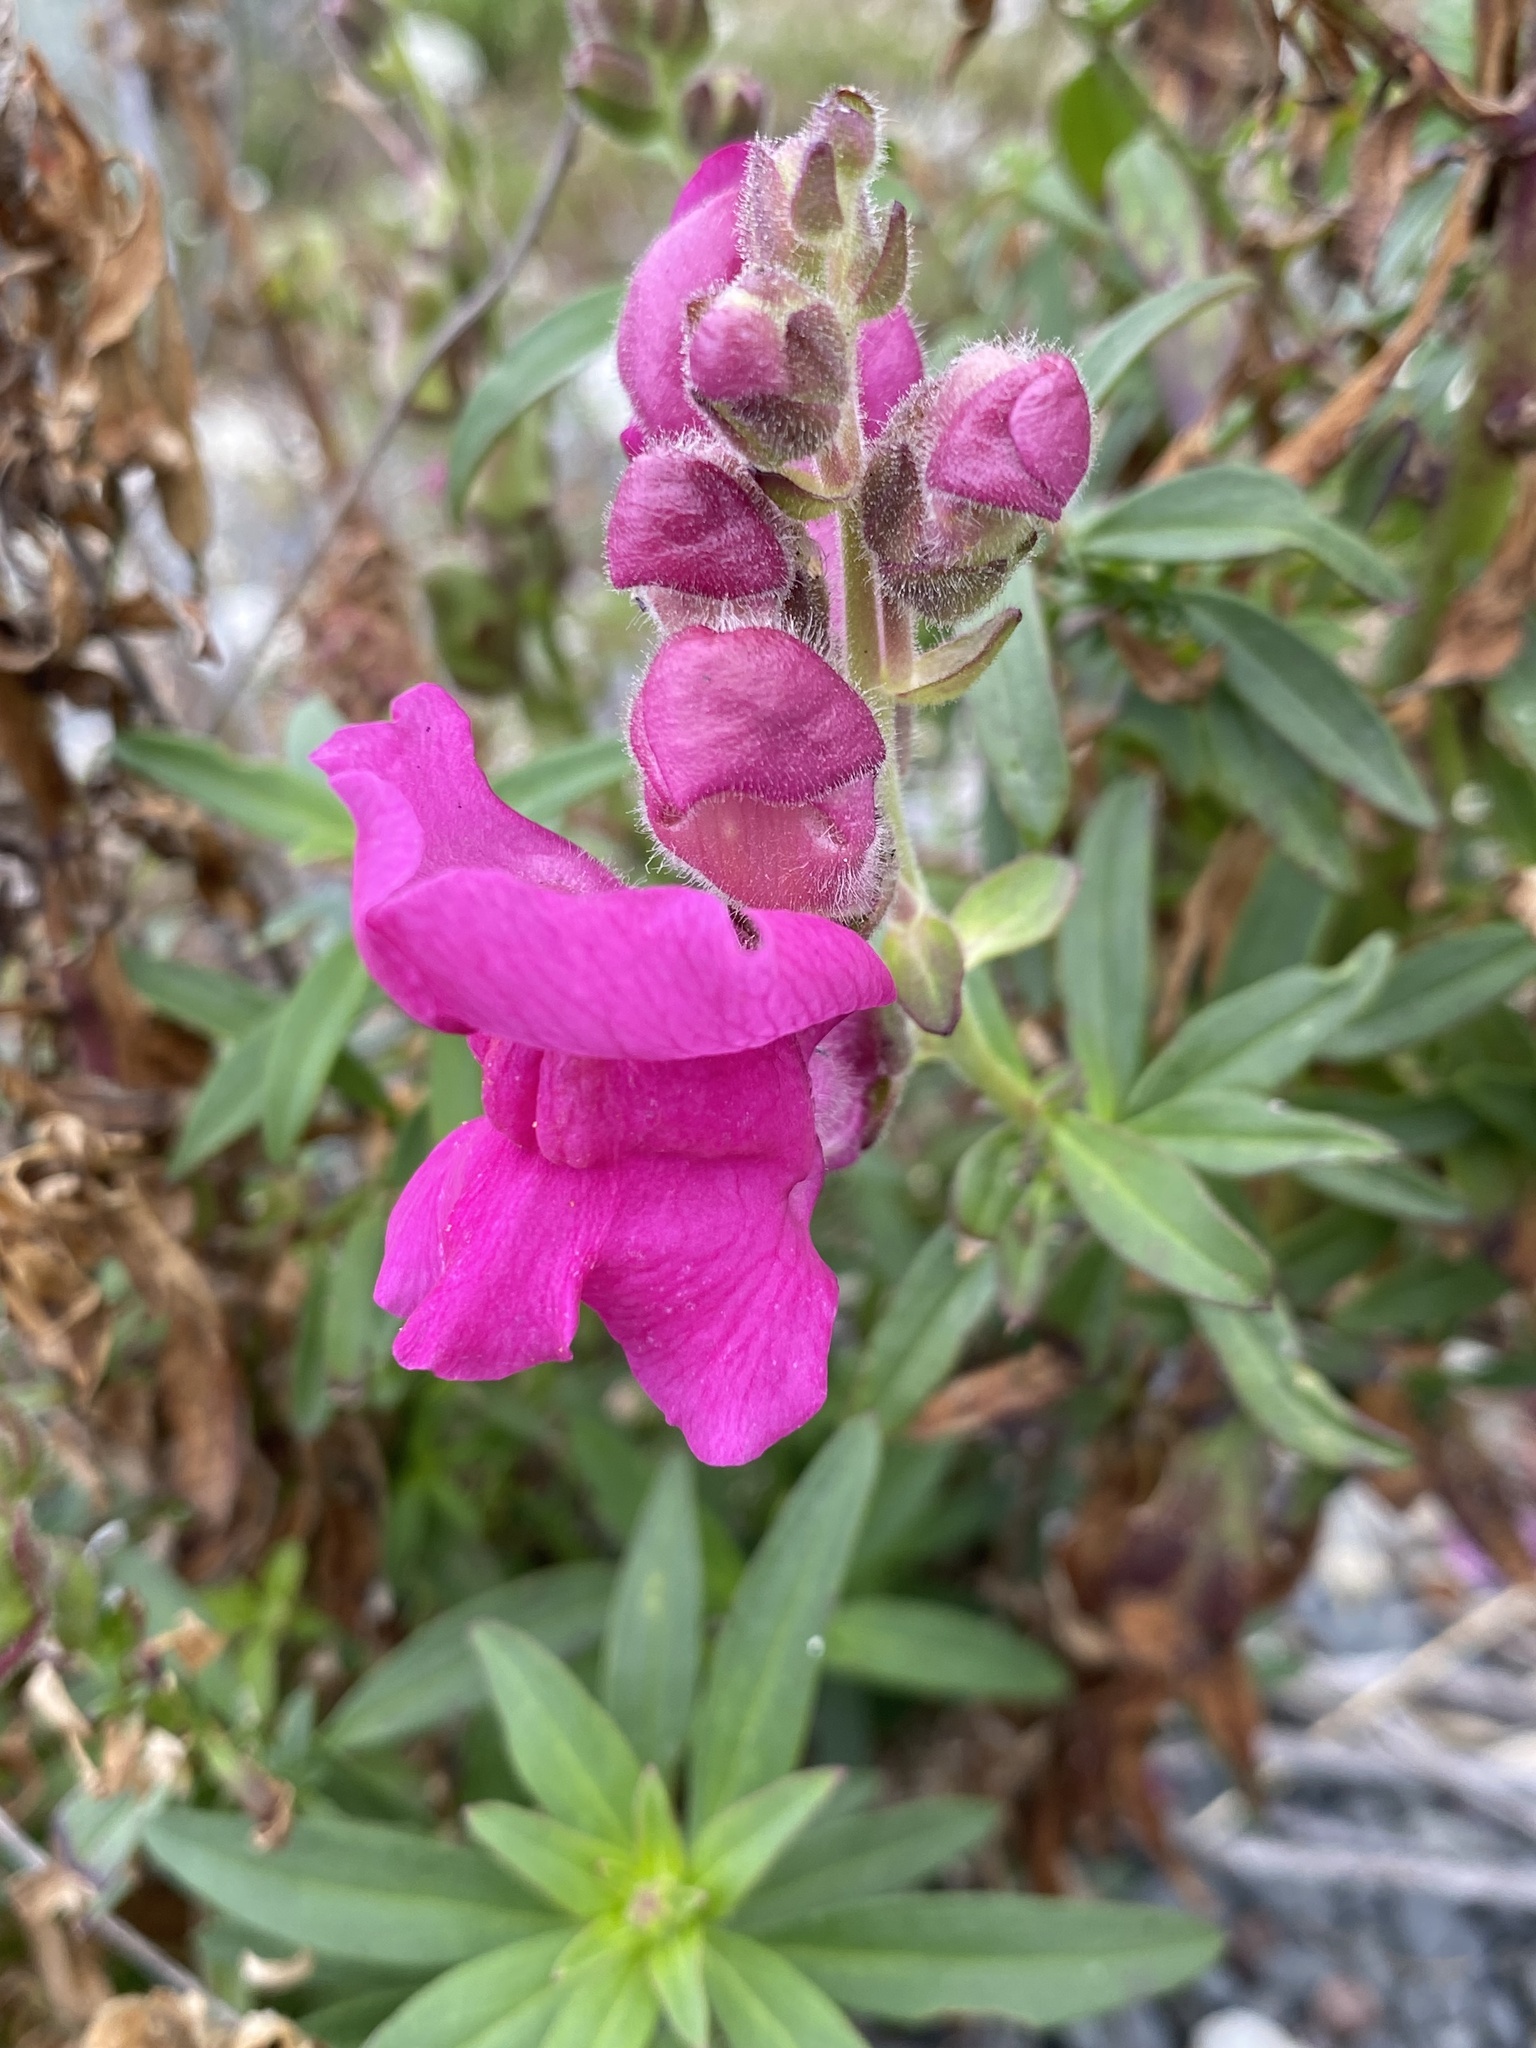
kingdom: Plantae
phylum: Tracheophyta
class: Magnoliopsida
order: Lamiales
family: Plantaginaceae
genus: Antirrhinum
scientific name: Antirrhinum majus
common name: Snapdragon
